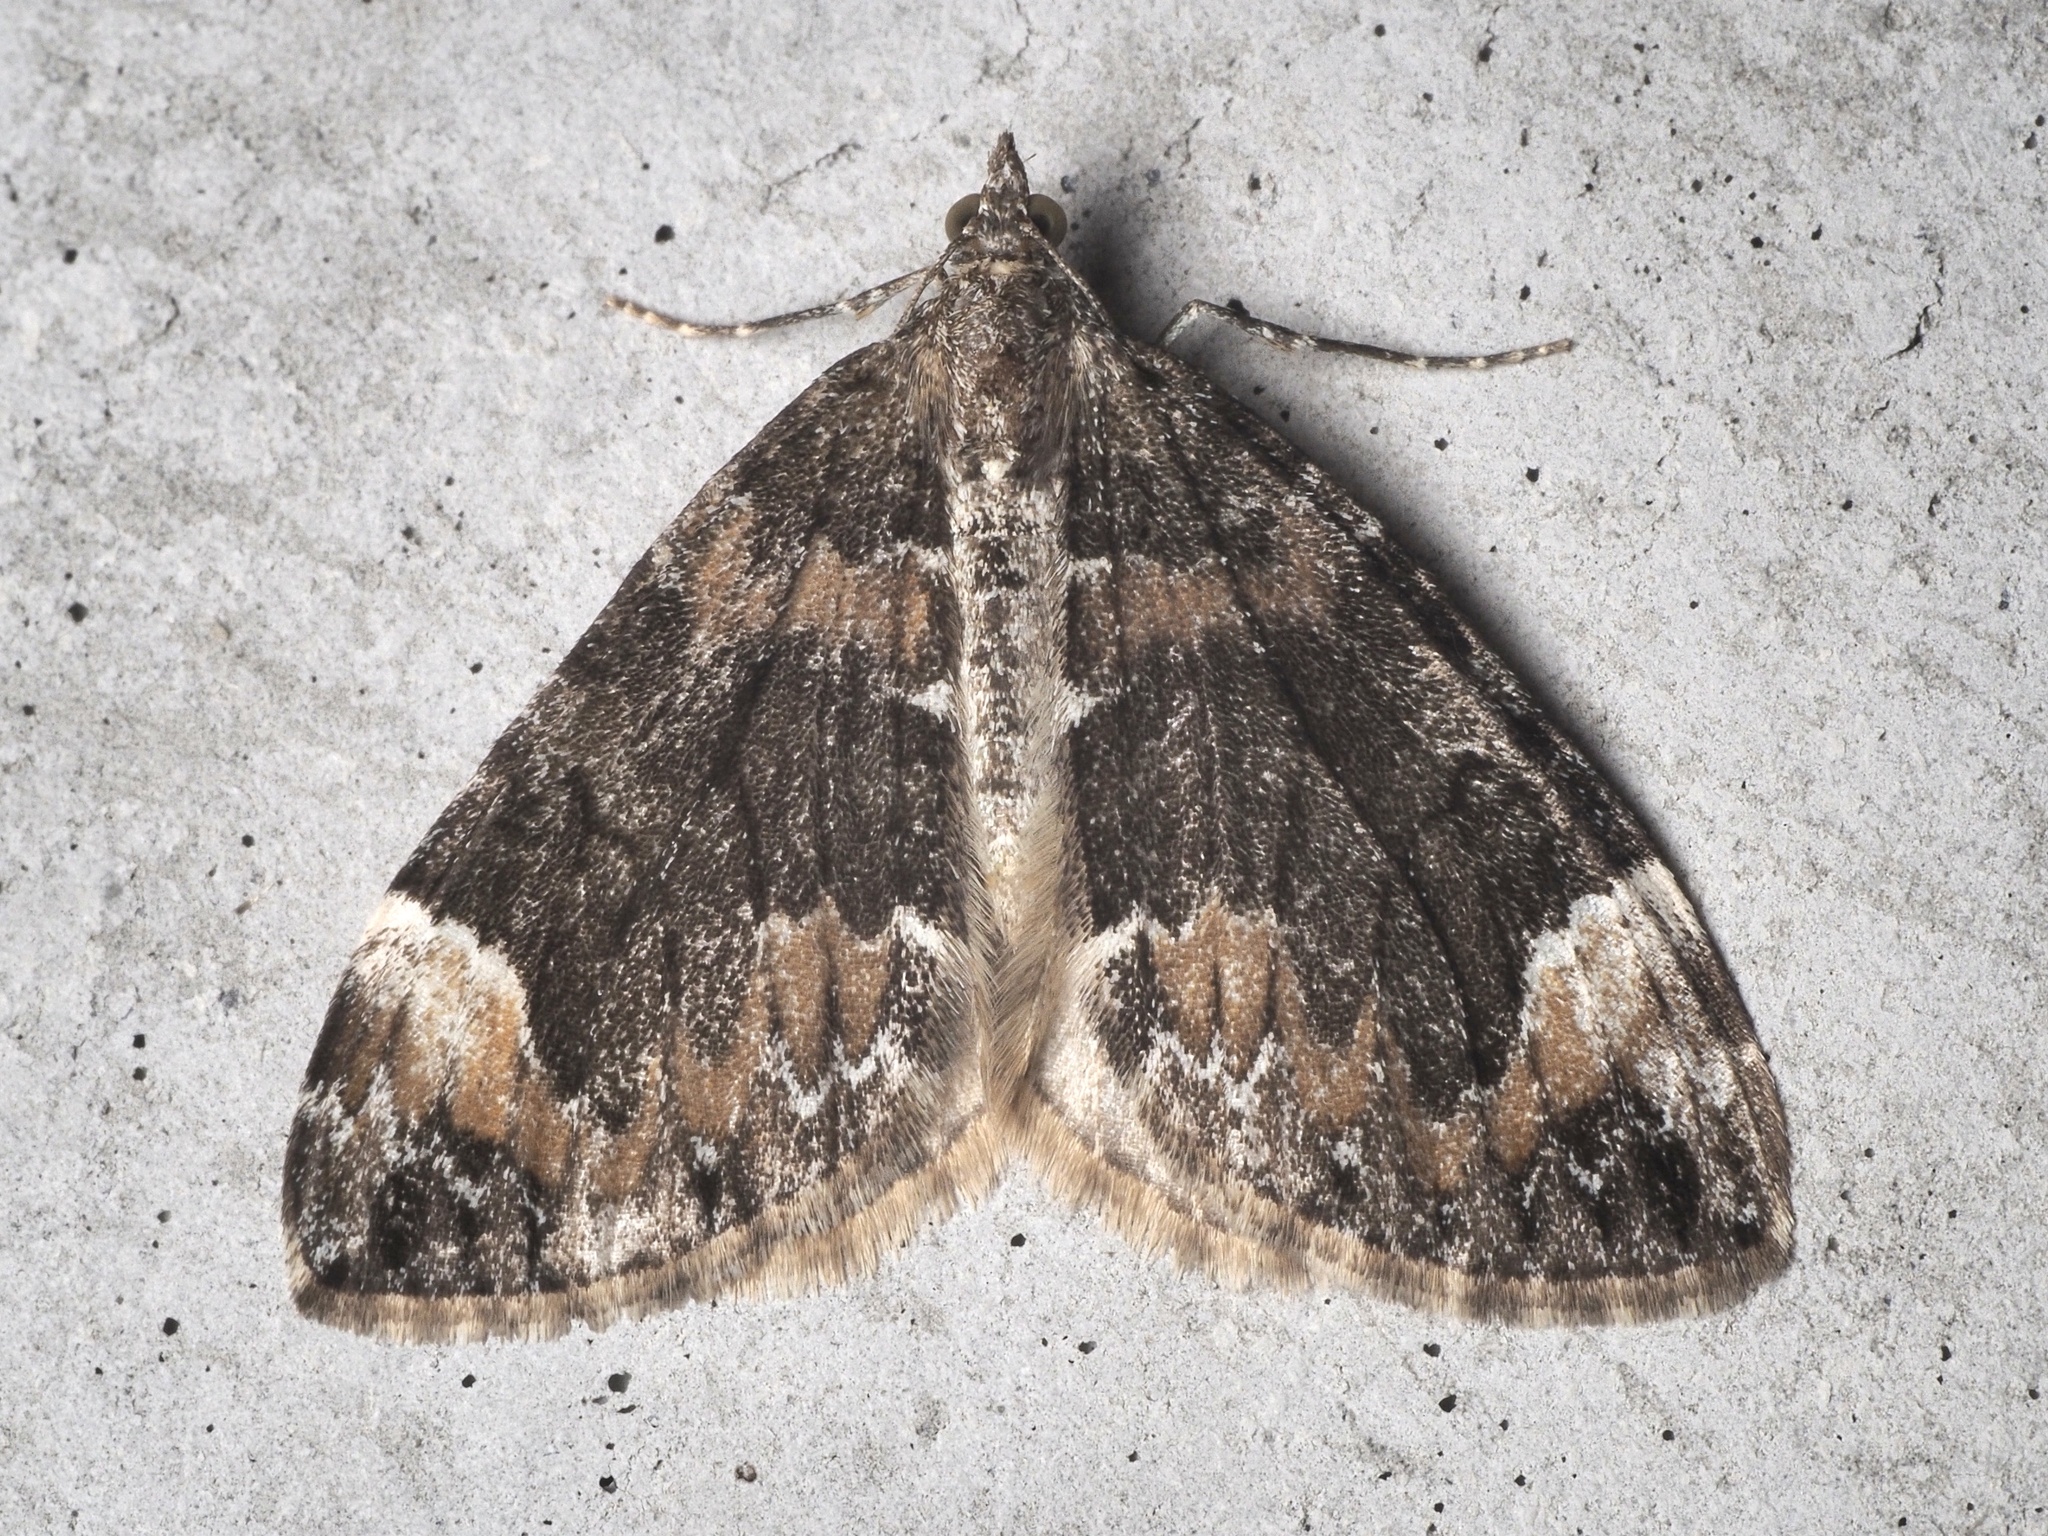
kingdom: Animalia
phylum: Arthropoda
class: Insecta
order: Lepidoptera
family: Geometridae
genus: Dysstroma
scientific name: Dysstroma citrata
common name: Dark marbled carpet
